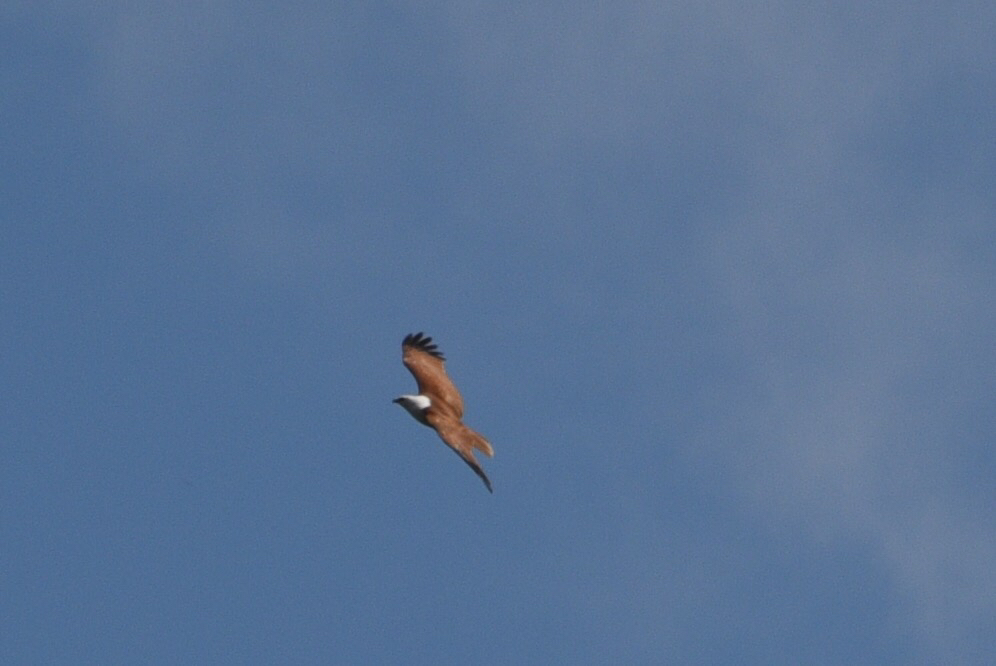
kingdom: Animalia
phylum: Chordata
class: Aves
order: Accipitriformes
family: Accipitridae
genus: Haliastur
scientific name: Haliastur indus
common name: Brahminy kite
